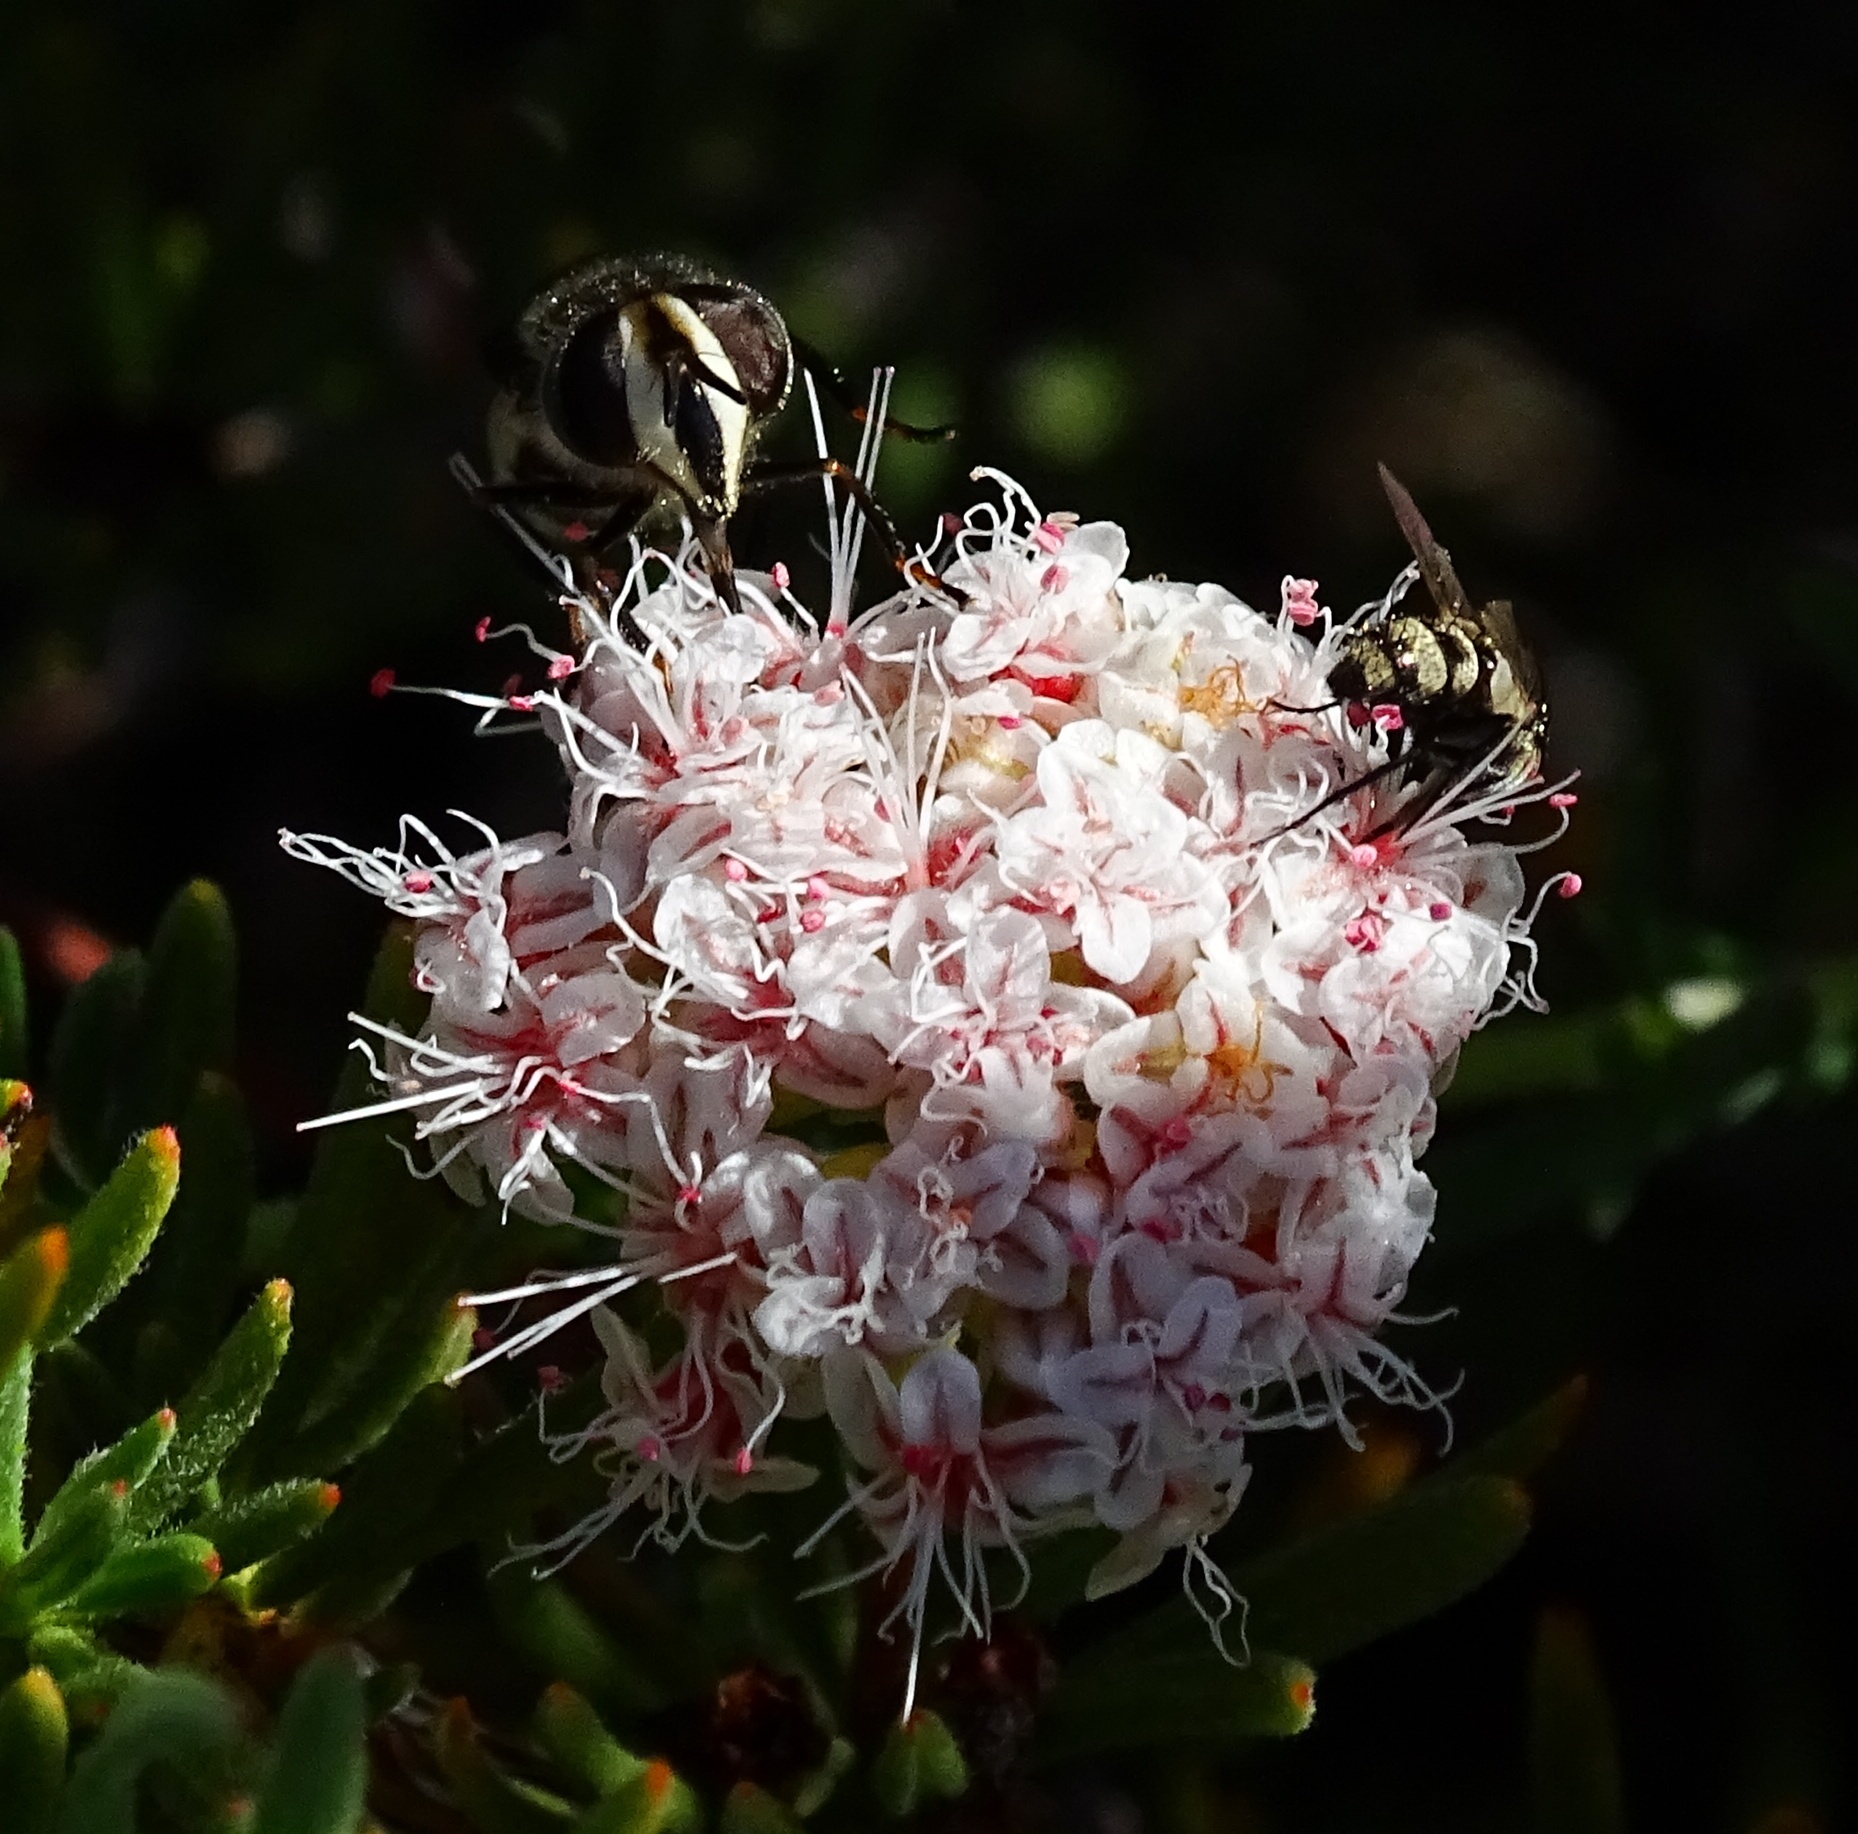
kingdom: Animalia
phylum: Arthropoda
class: Insecta
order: Diptera
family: Syrphidae
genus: Copestylum
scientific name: Copestylum fraudulentum
